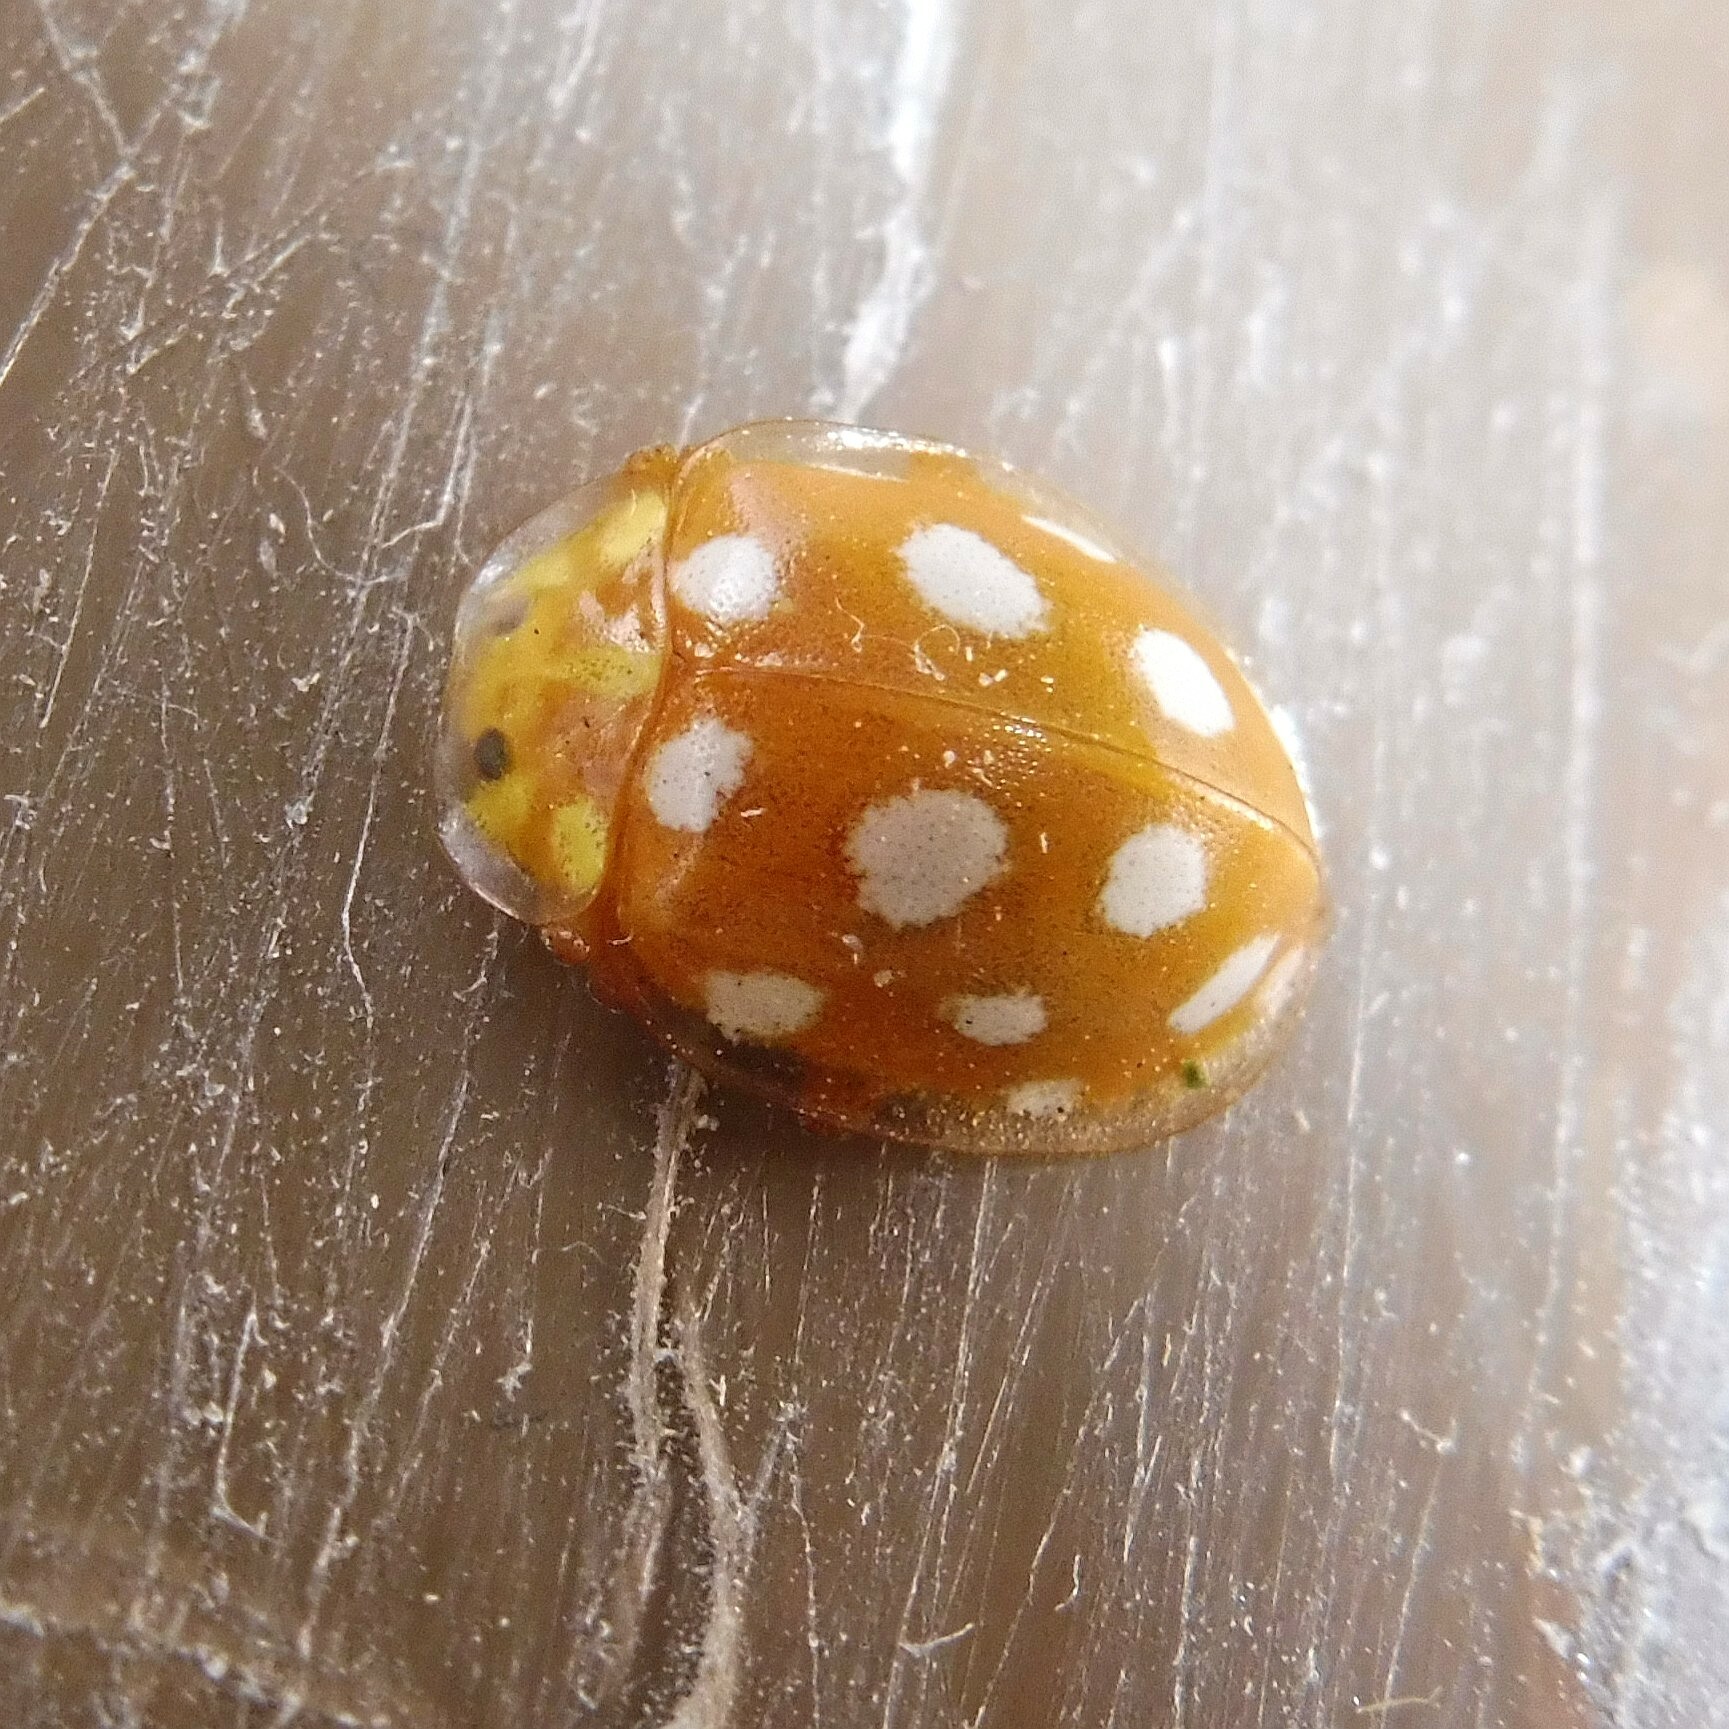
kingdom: Animalia
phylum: Arthropoda
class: Insecta
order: Coleoptera
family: Coccinellidae
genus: Halyzia
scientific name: Halyzia sedecimguttata
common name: Orange ladybird
